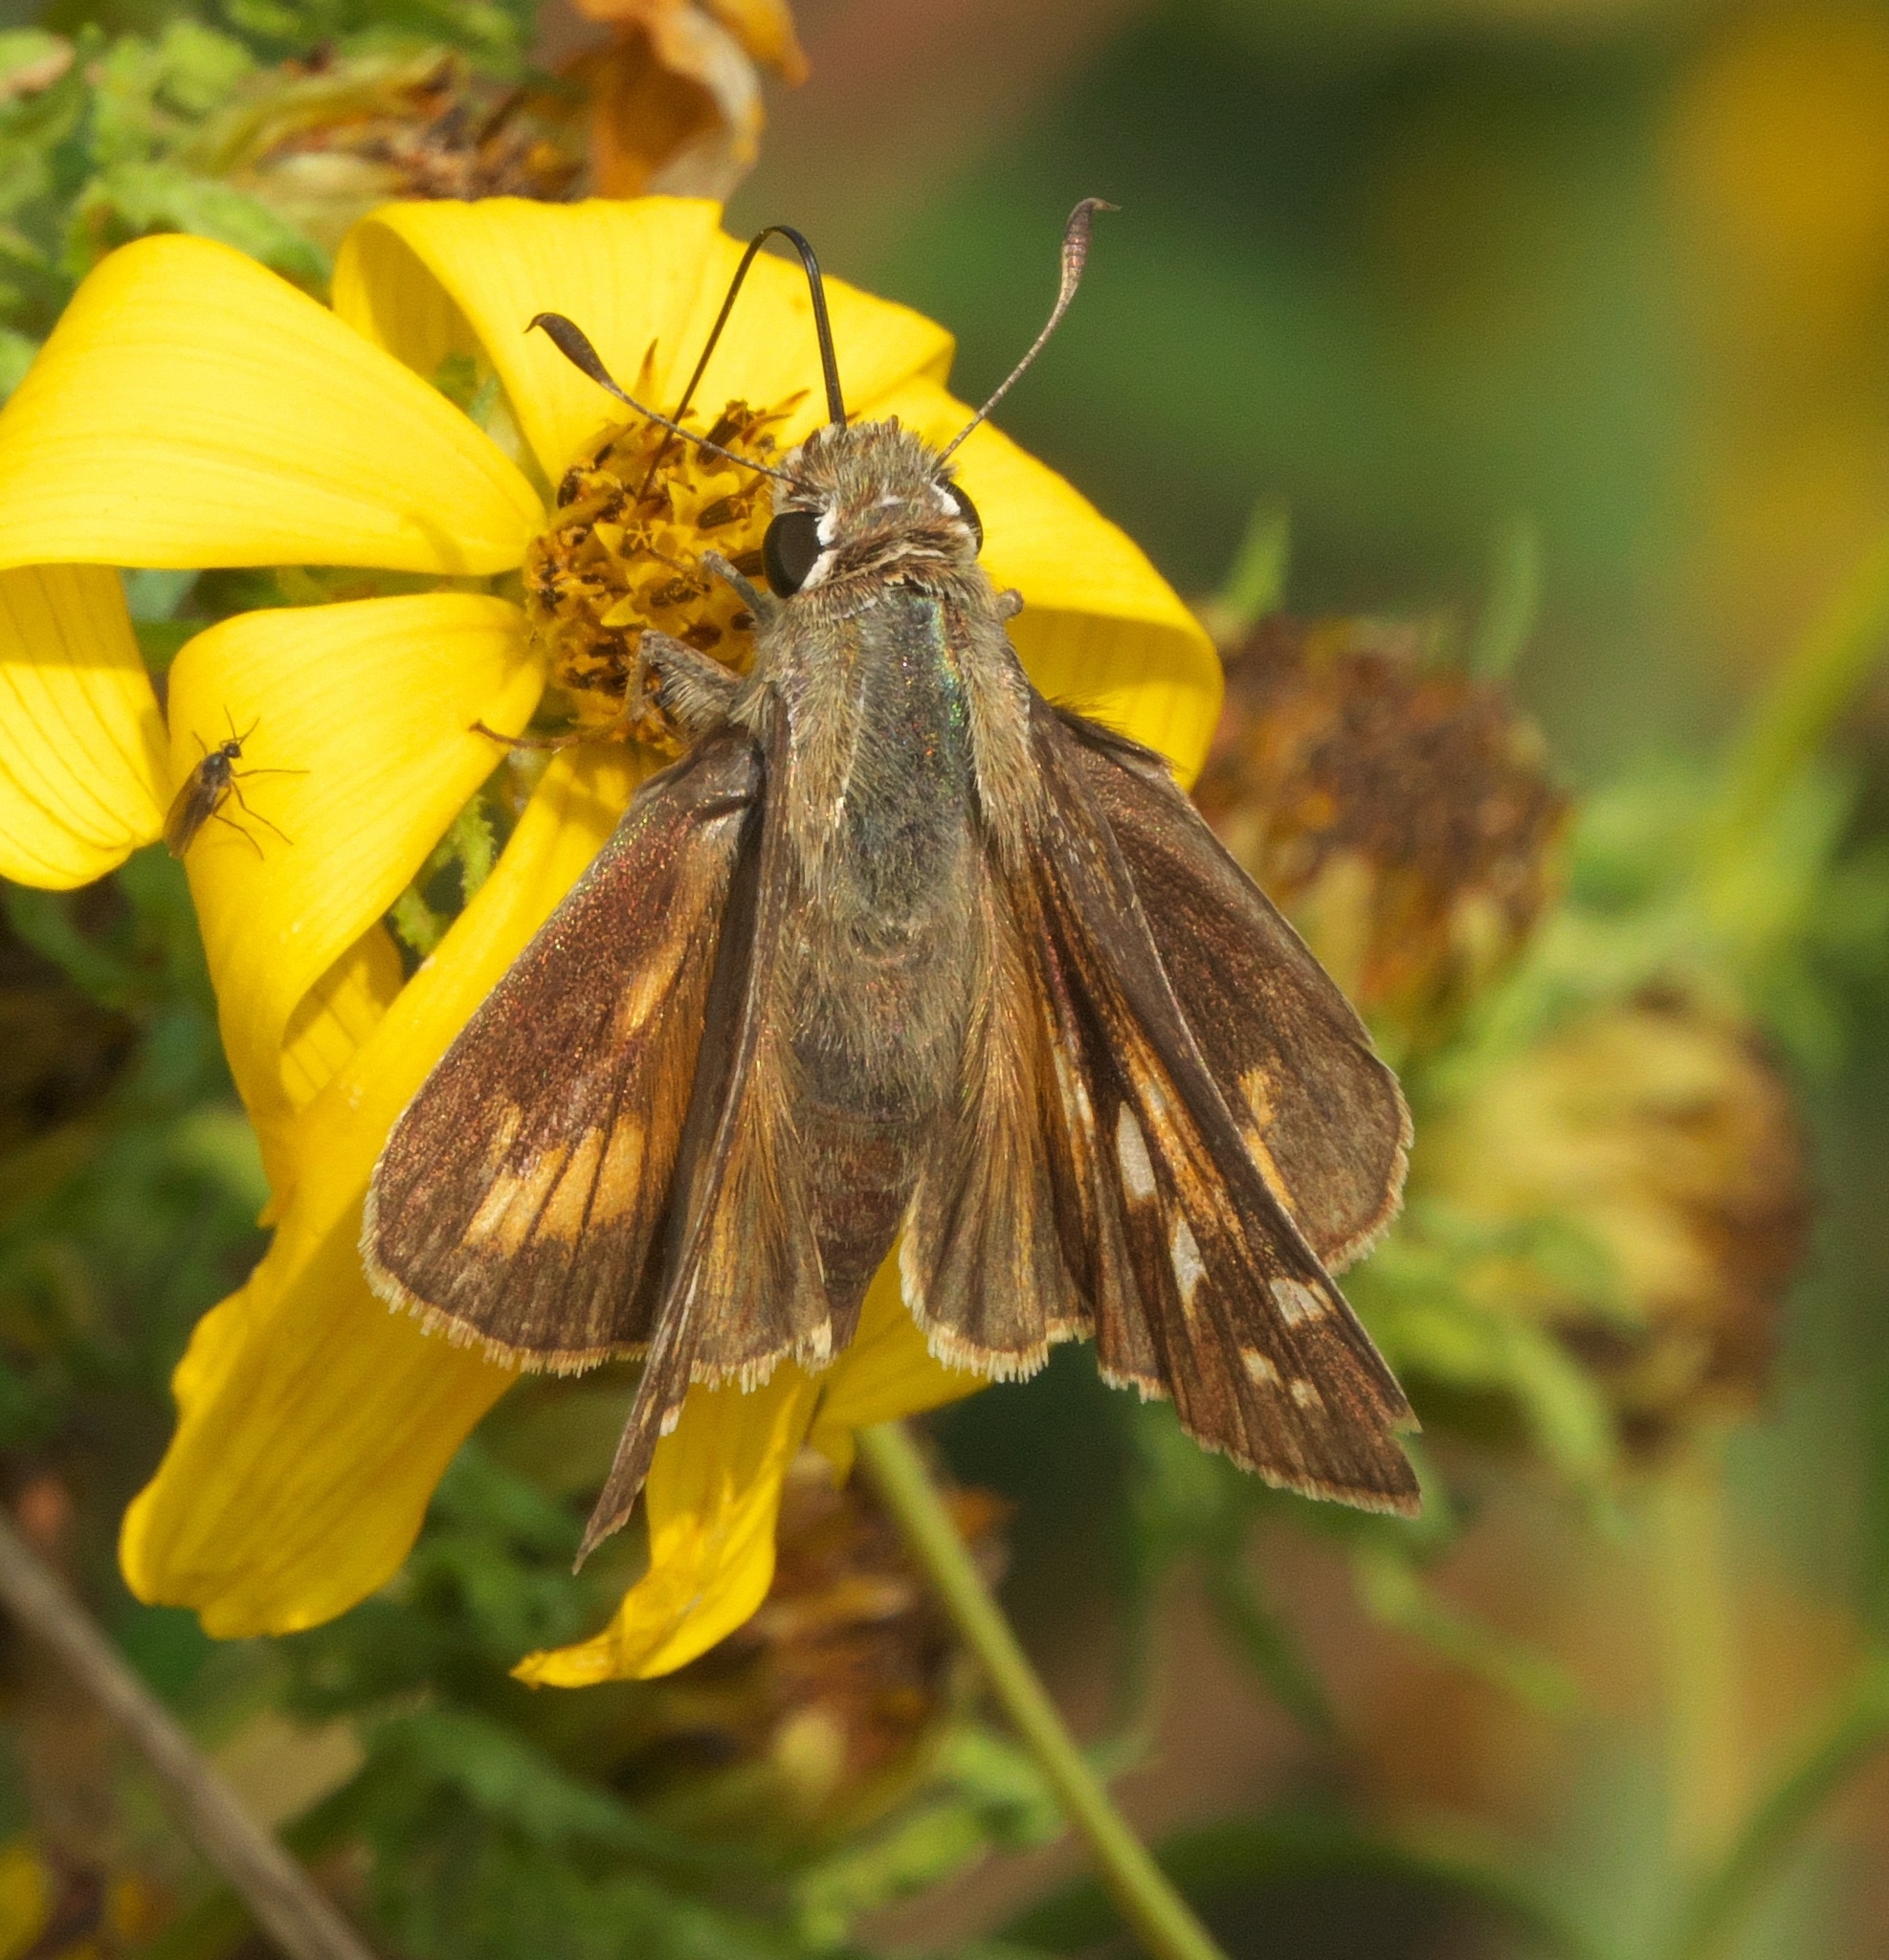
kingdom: Animalia
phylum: Arthropoda
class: Insecta
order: Lepidoptera
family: Hesperiidae
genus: Atalopedes
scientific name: Atalopedes
